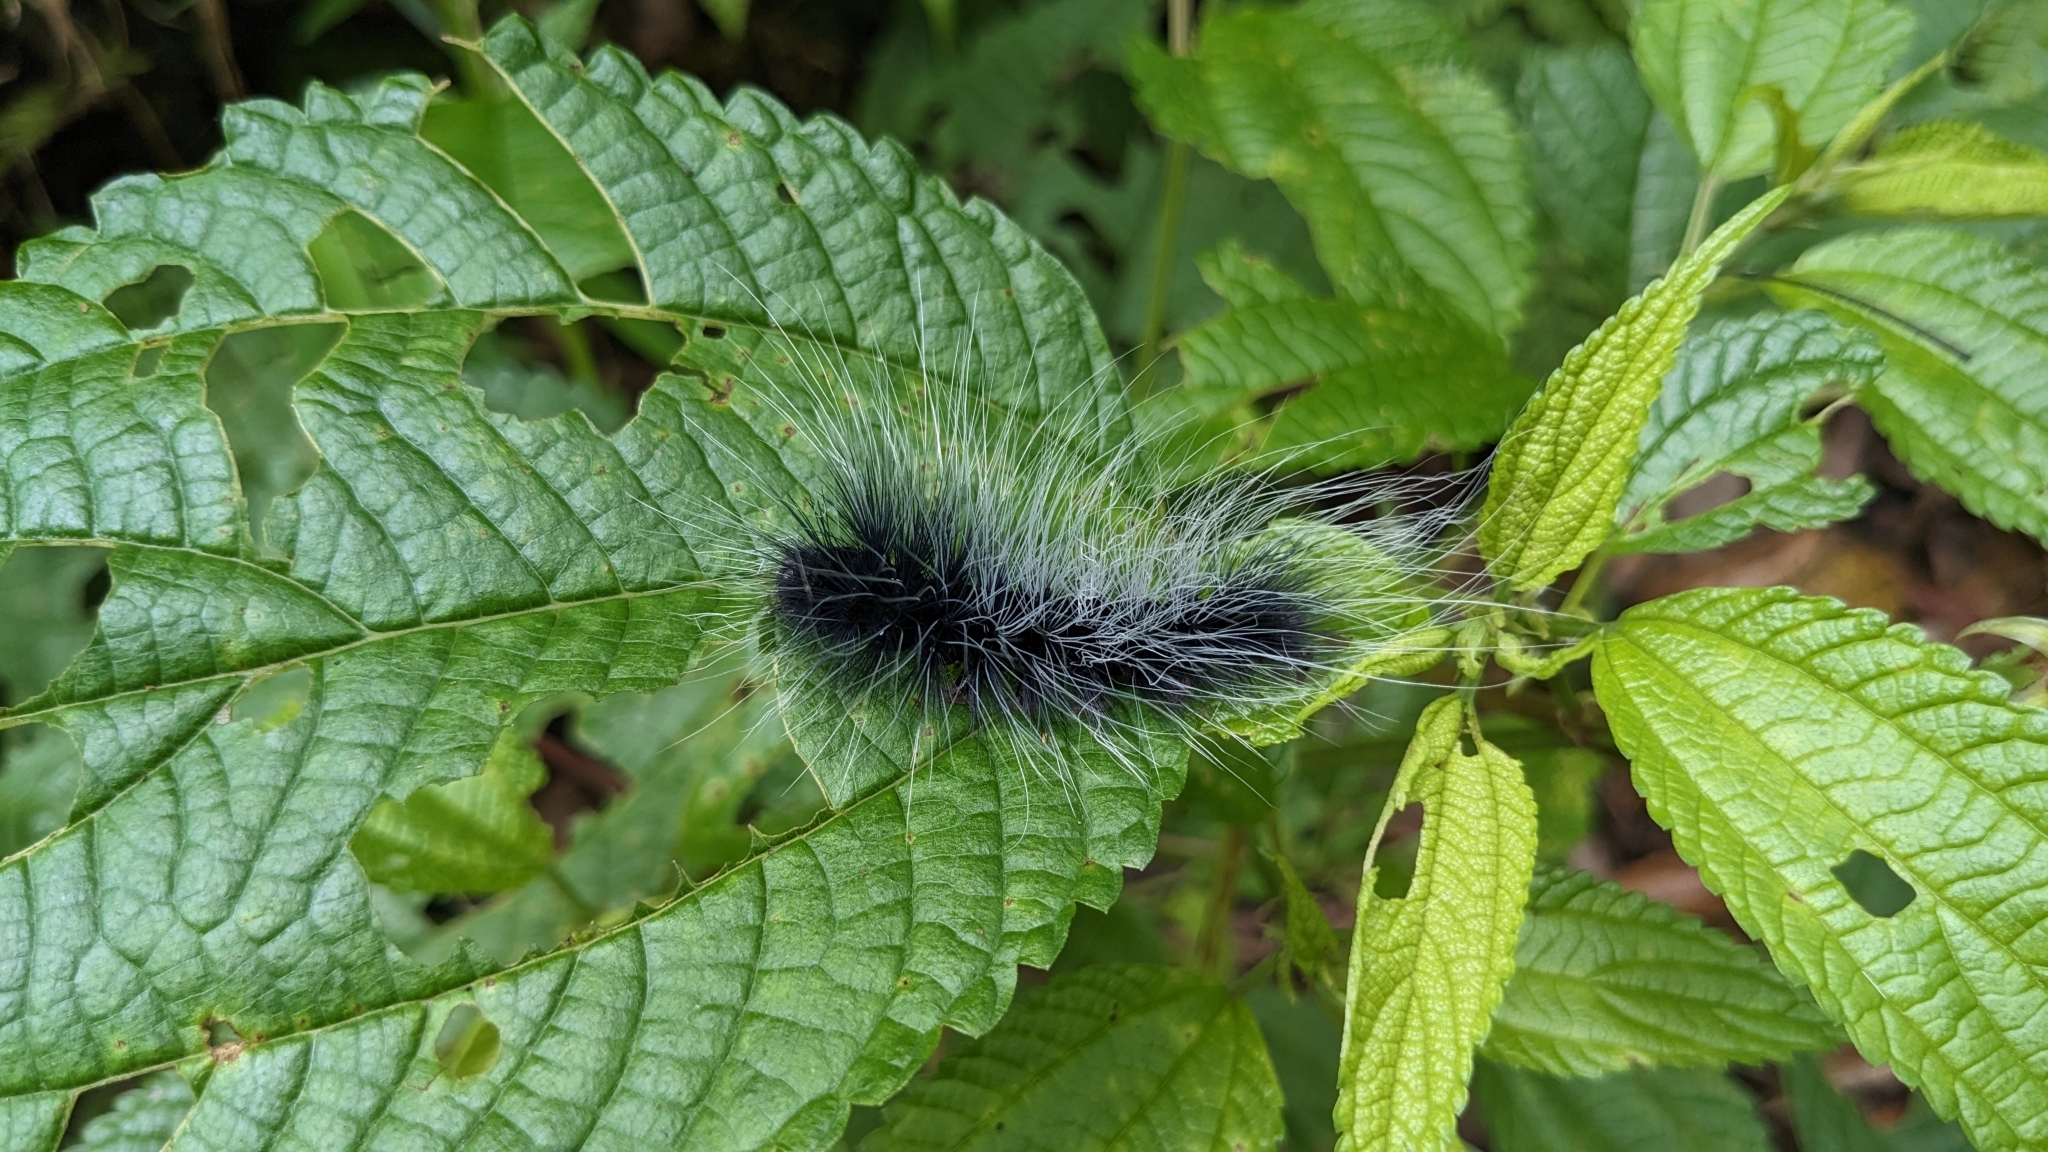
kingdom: Animalia
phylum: Arthropoda
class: Insecta
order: Lepidoptera
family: Erebidae
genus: Macrobrochis
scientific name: Macrobrochis gigas
